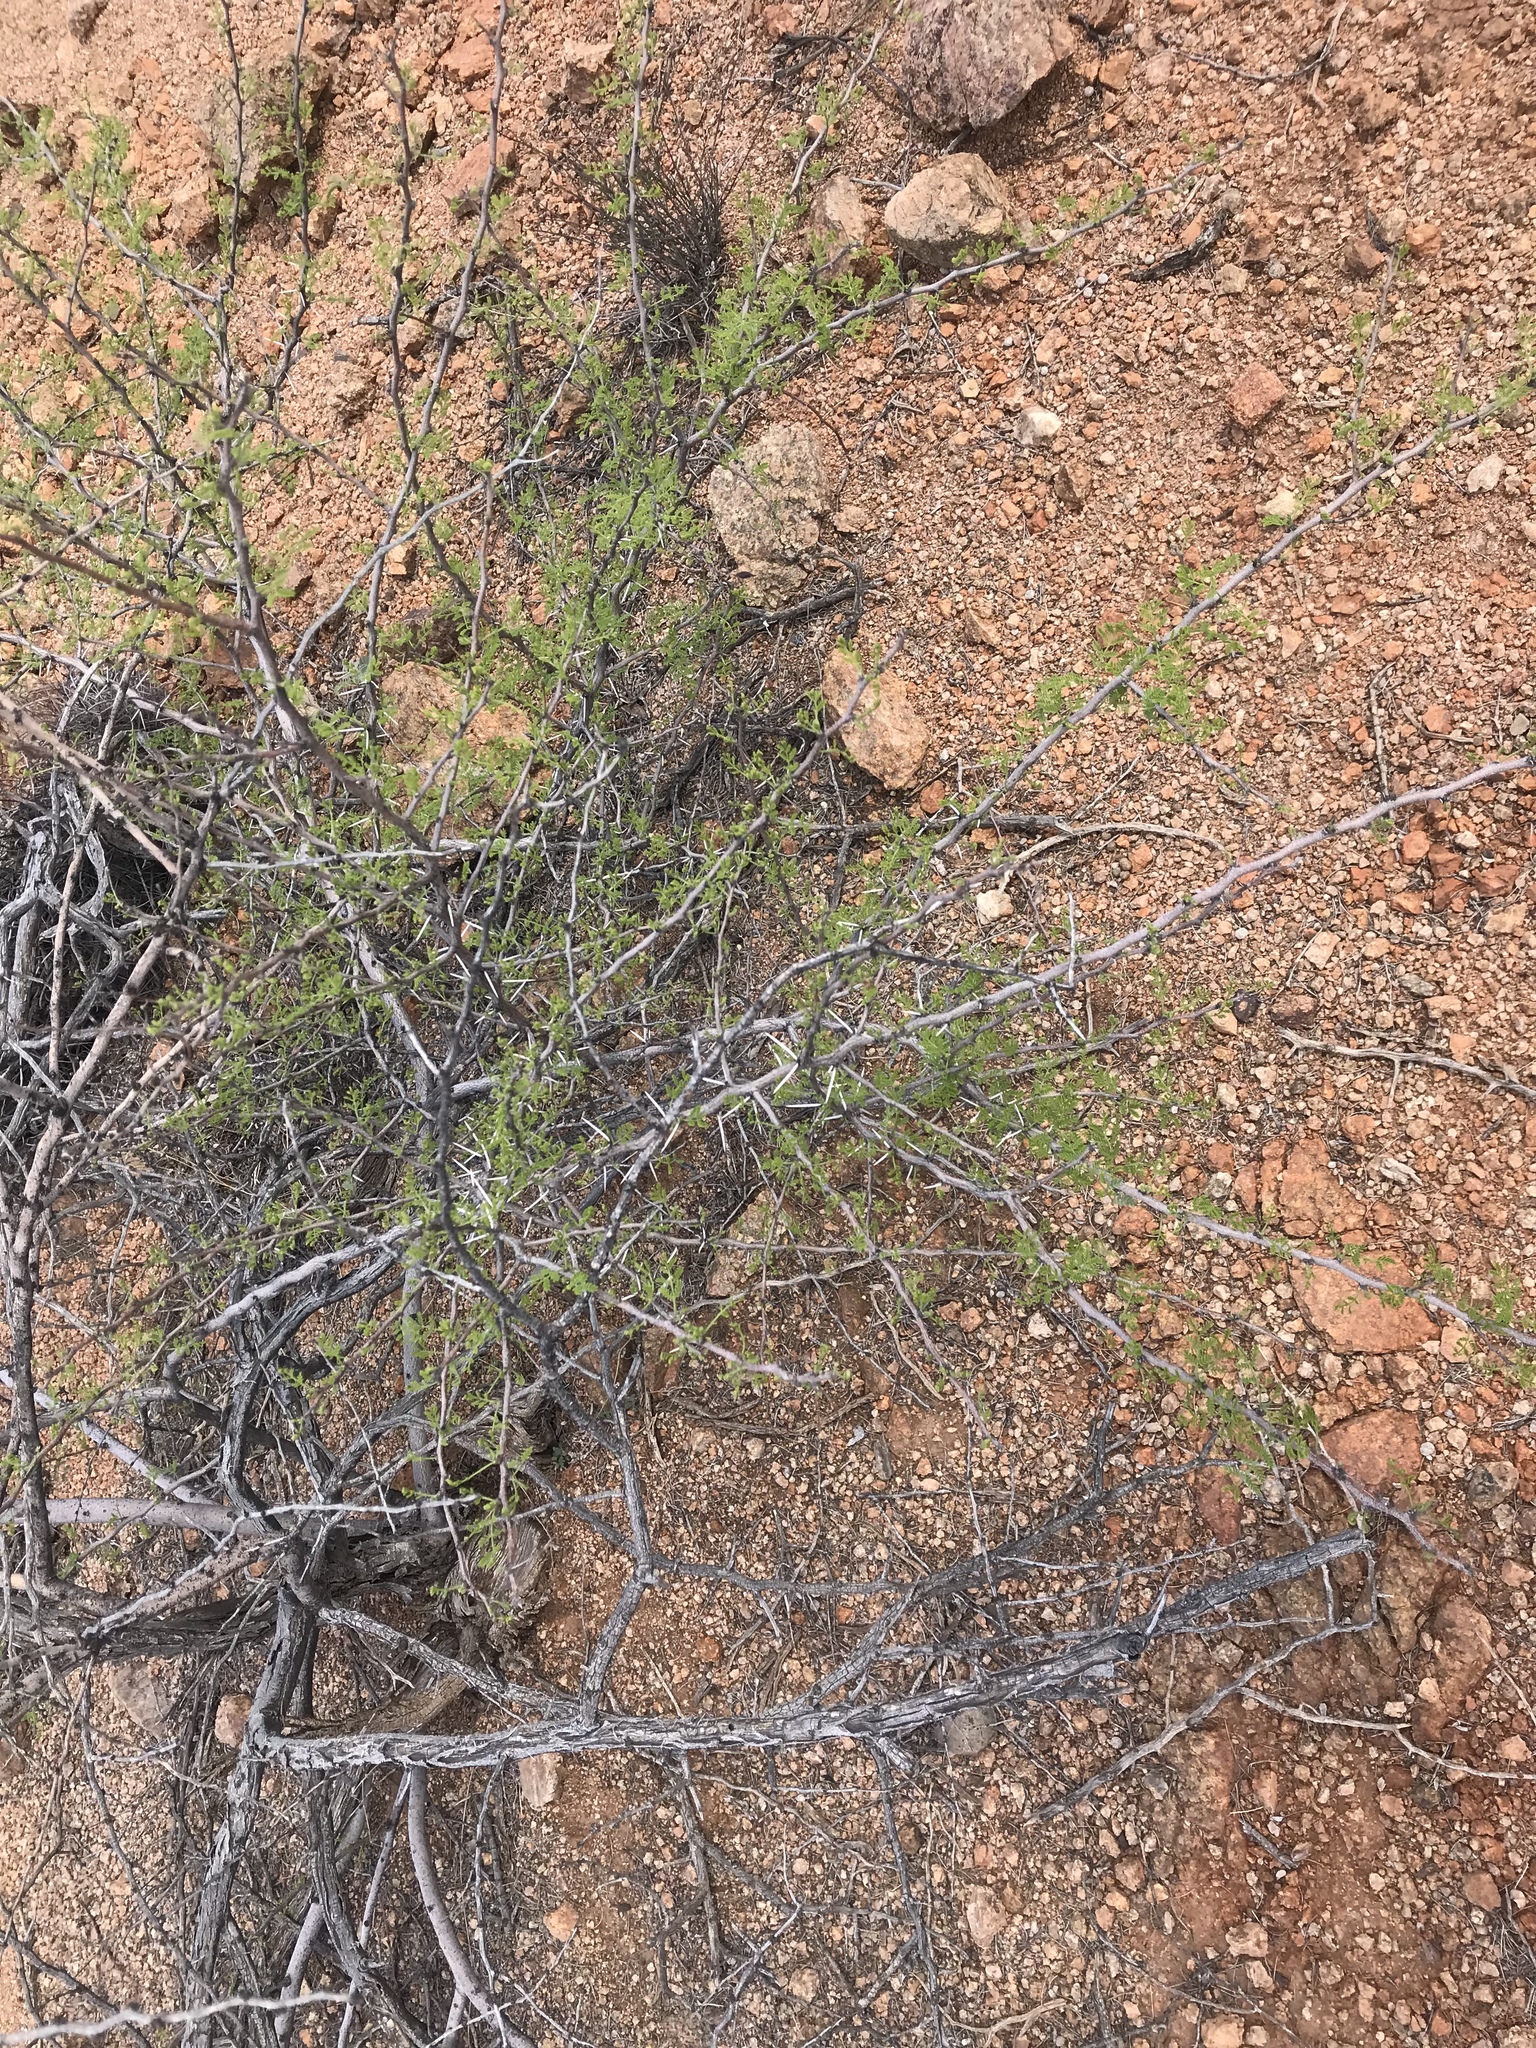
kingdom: Plantae
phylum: Tracheophyta
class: Magnoliopsida
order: Fabales
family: Fabaceae
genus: Vachellia
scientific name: Vachellia constricta
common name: Mescat acacia
